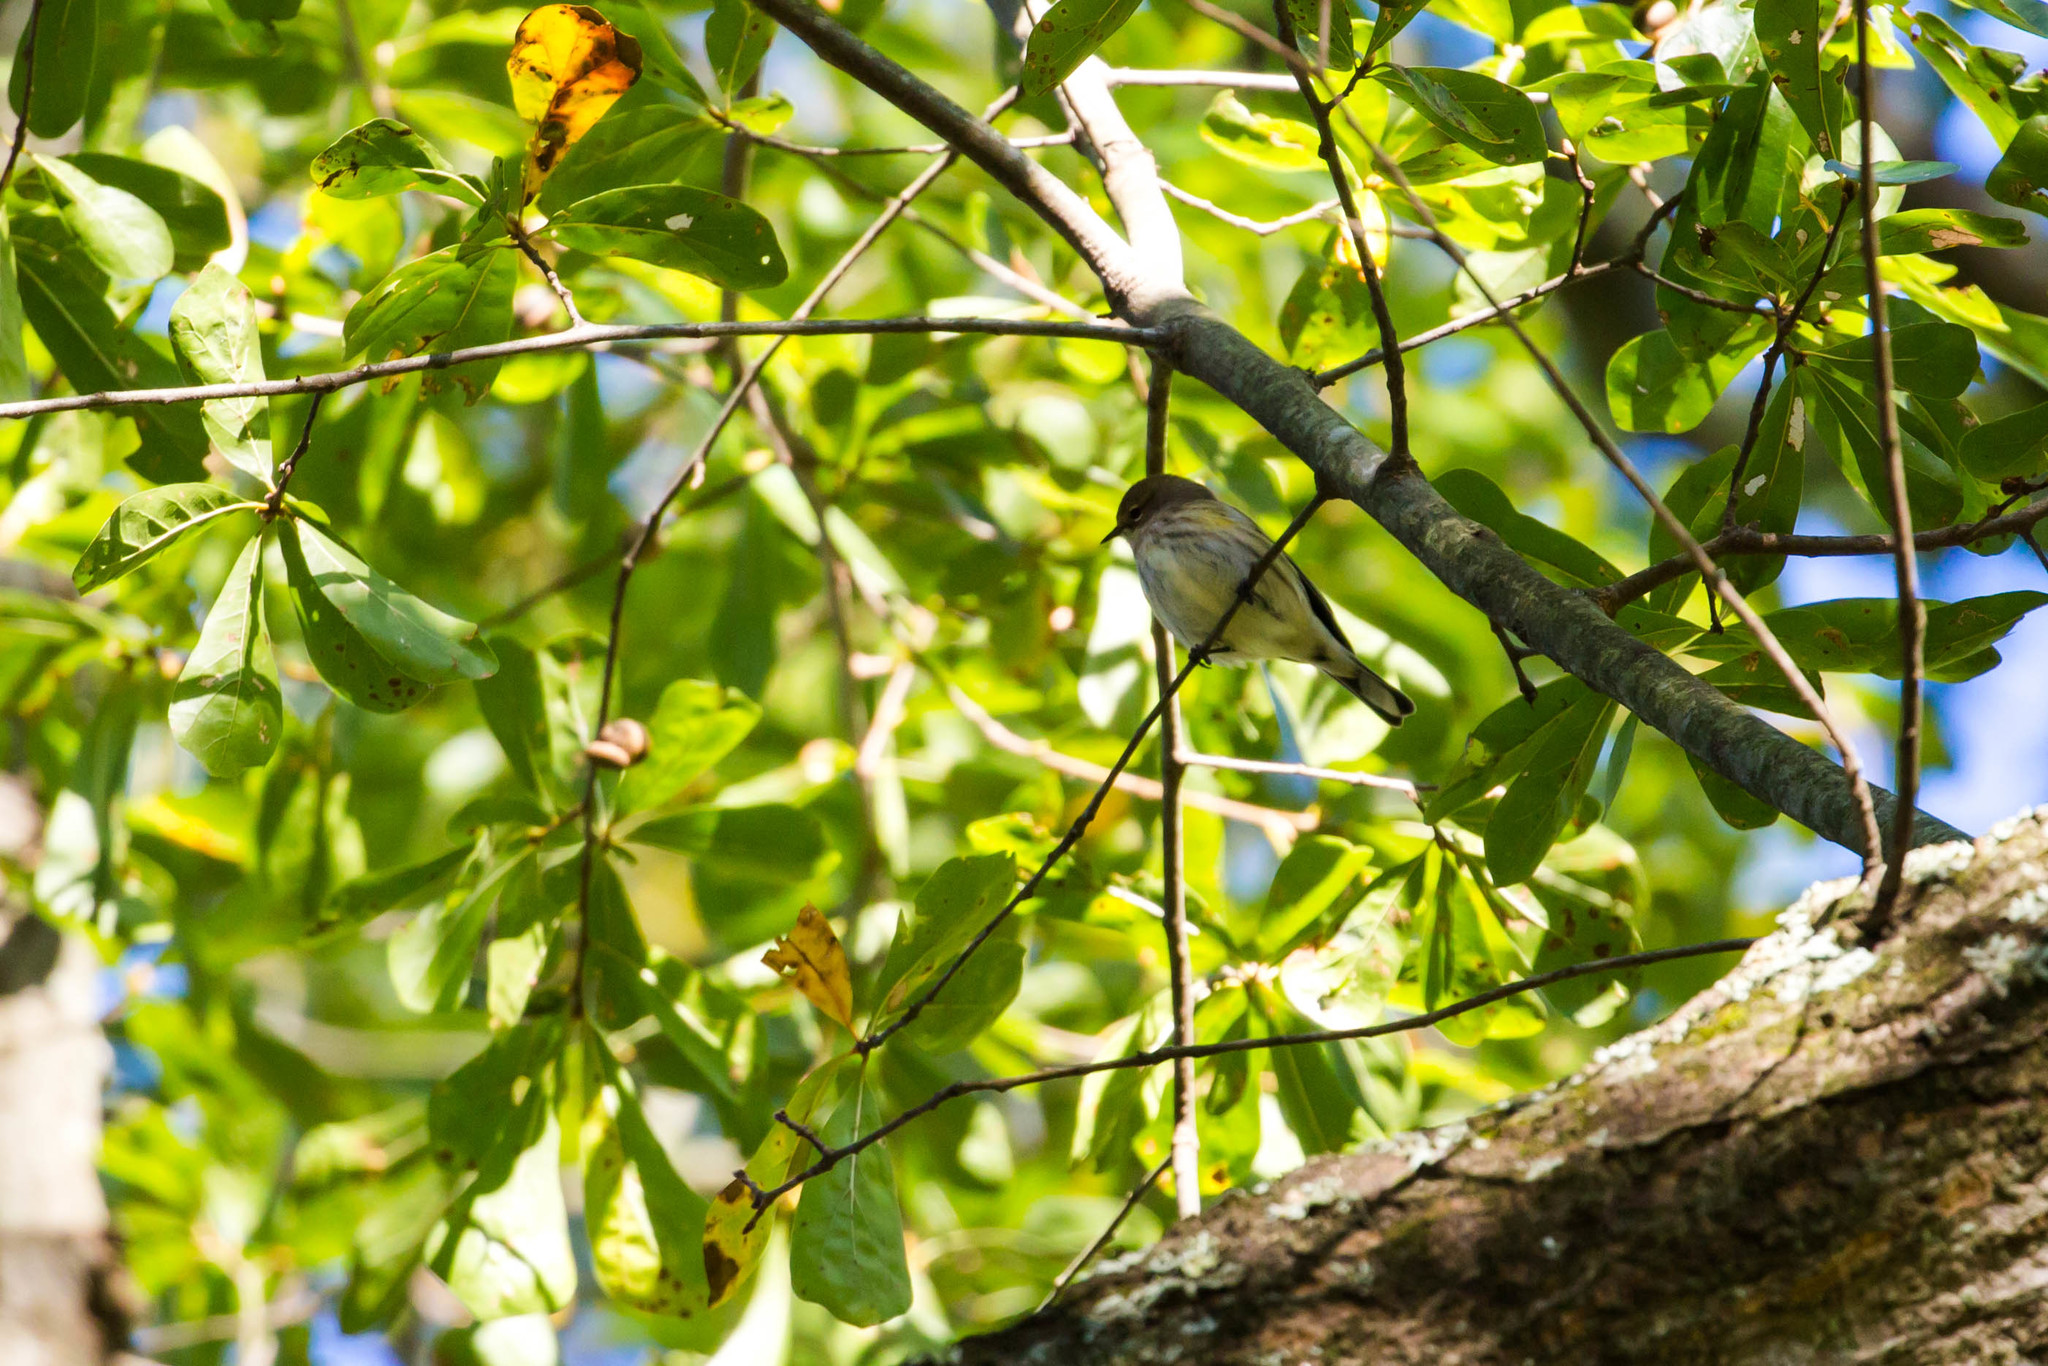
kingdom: Animalia
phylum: Chordata
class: Aves
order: Passeriformes
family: Parulidae
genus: Setophaga
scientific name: Setophaga coronata
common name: Myrtle warbler
